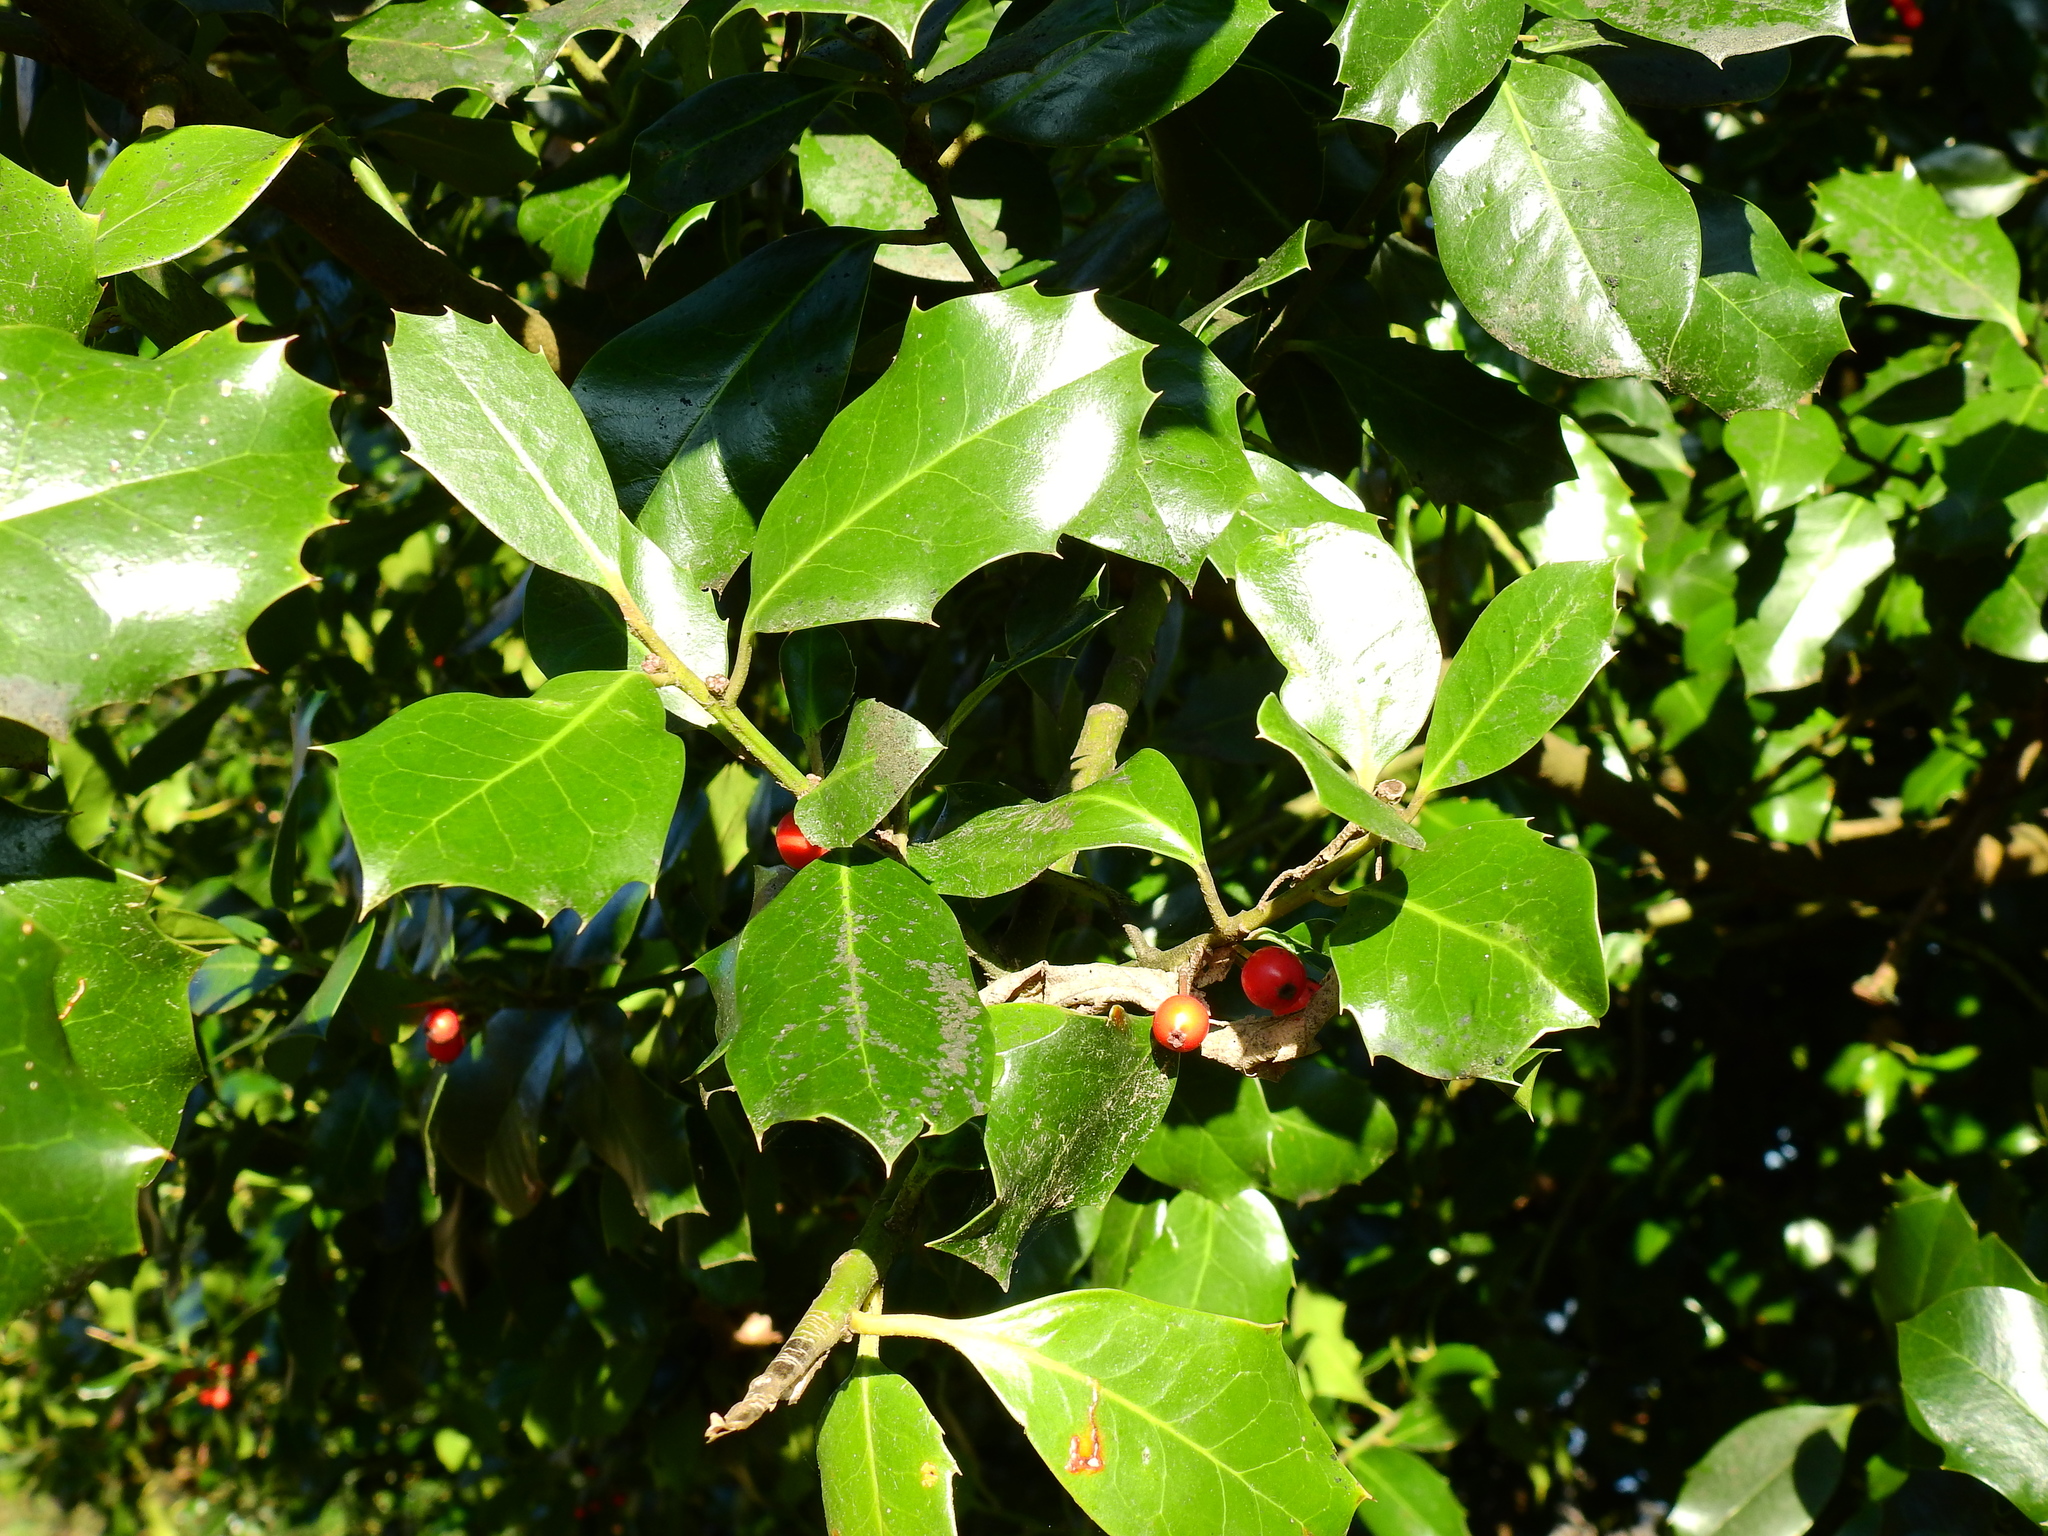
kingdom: Plantae
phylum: Tracheophyta
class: Magnoliopsida
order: Aquifoliales
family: Aquifoliaceae
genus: Ilex
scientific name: Ilex aquifolium
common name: English holly
